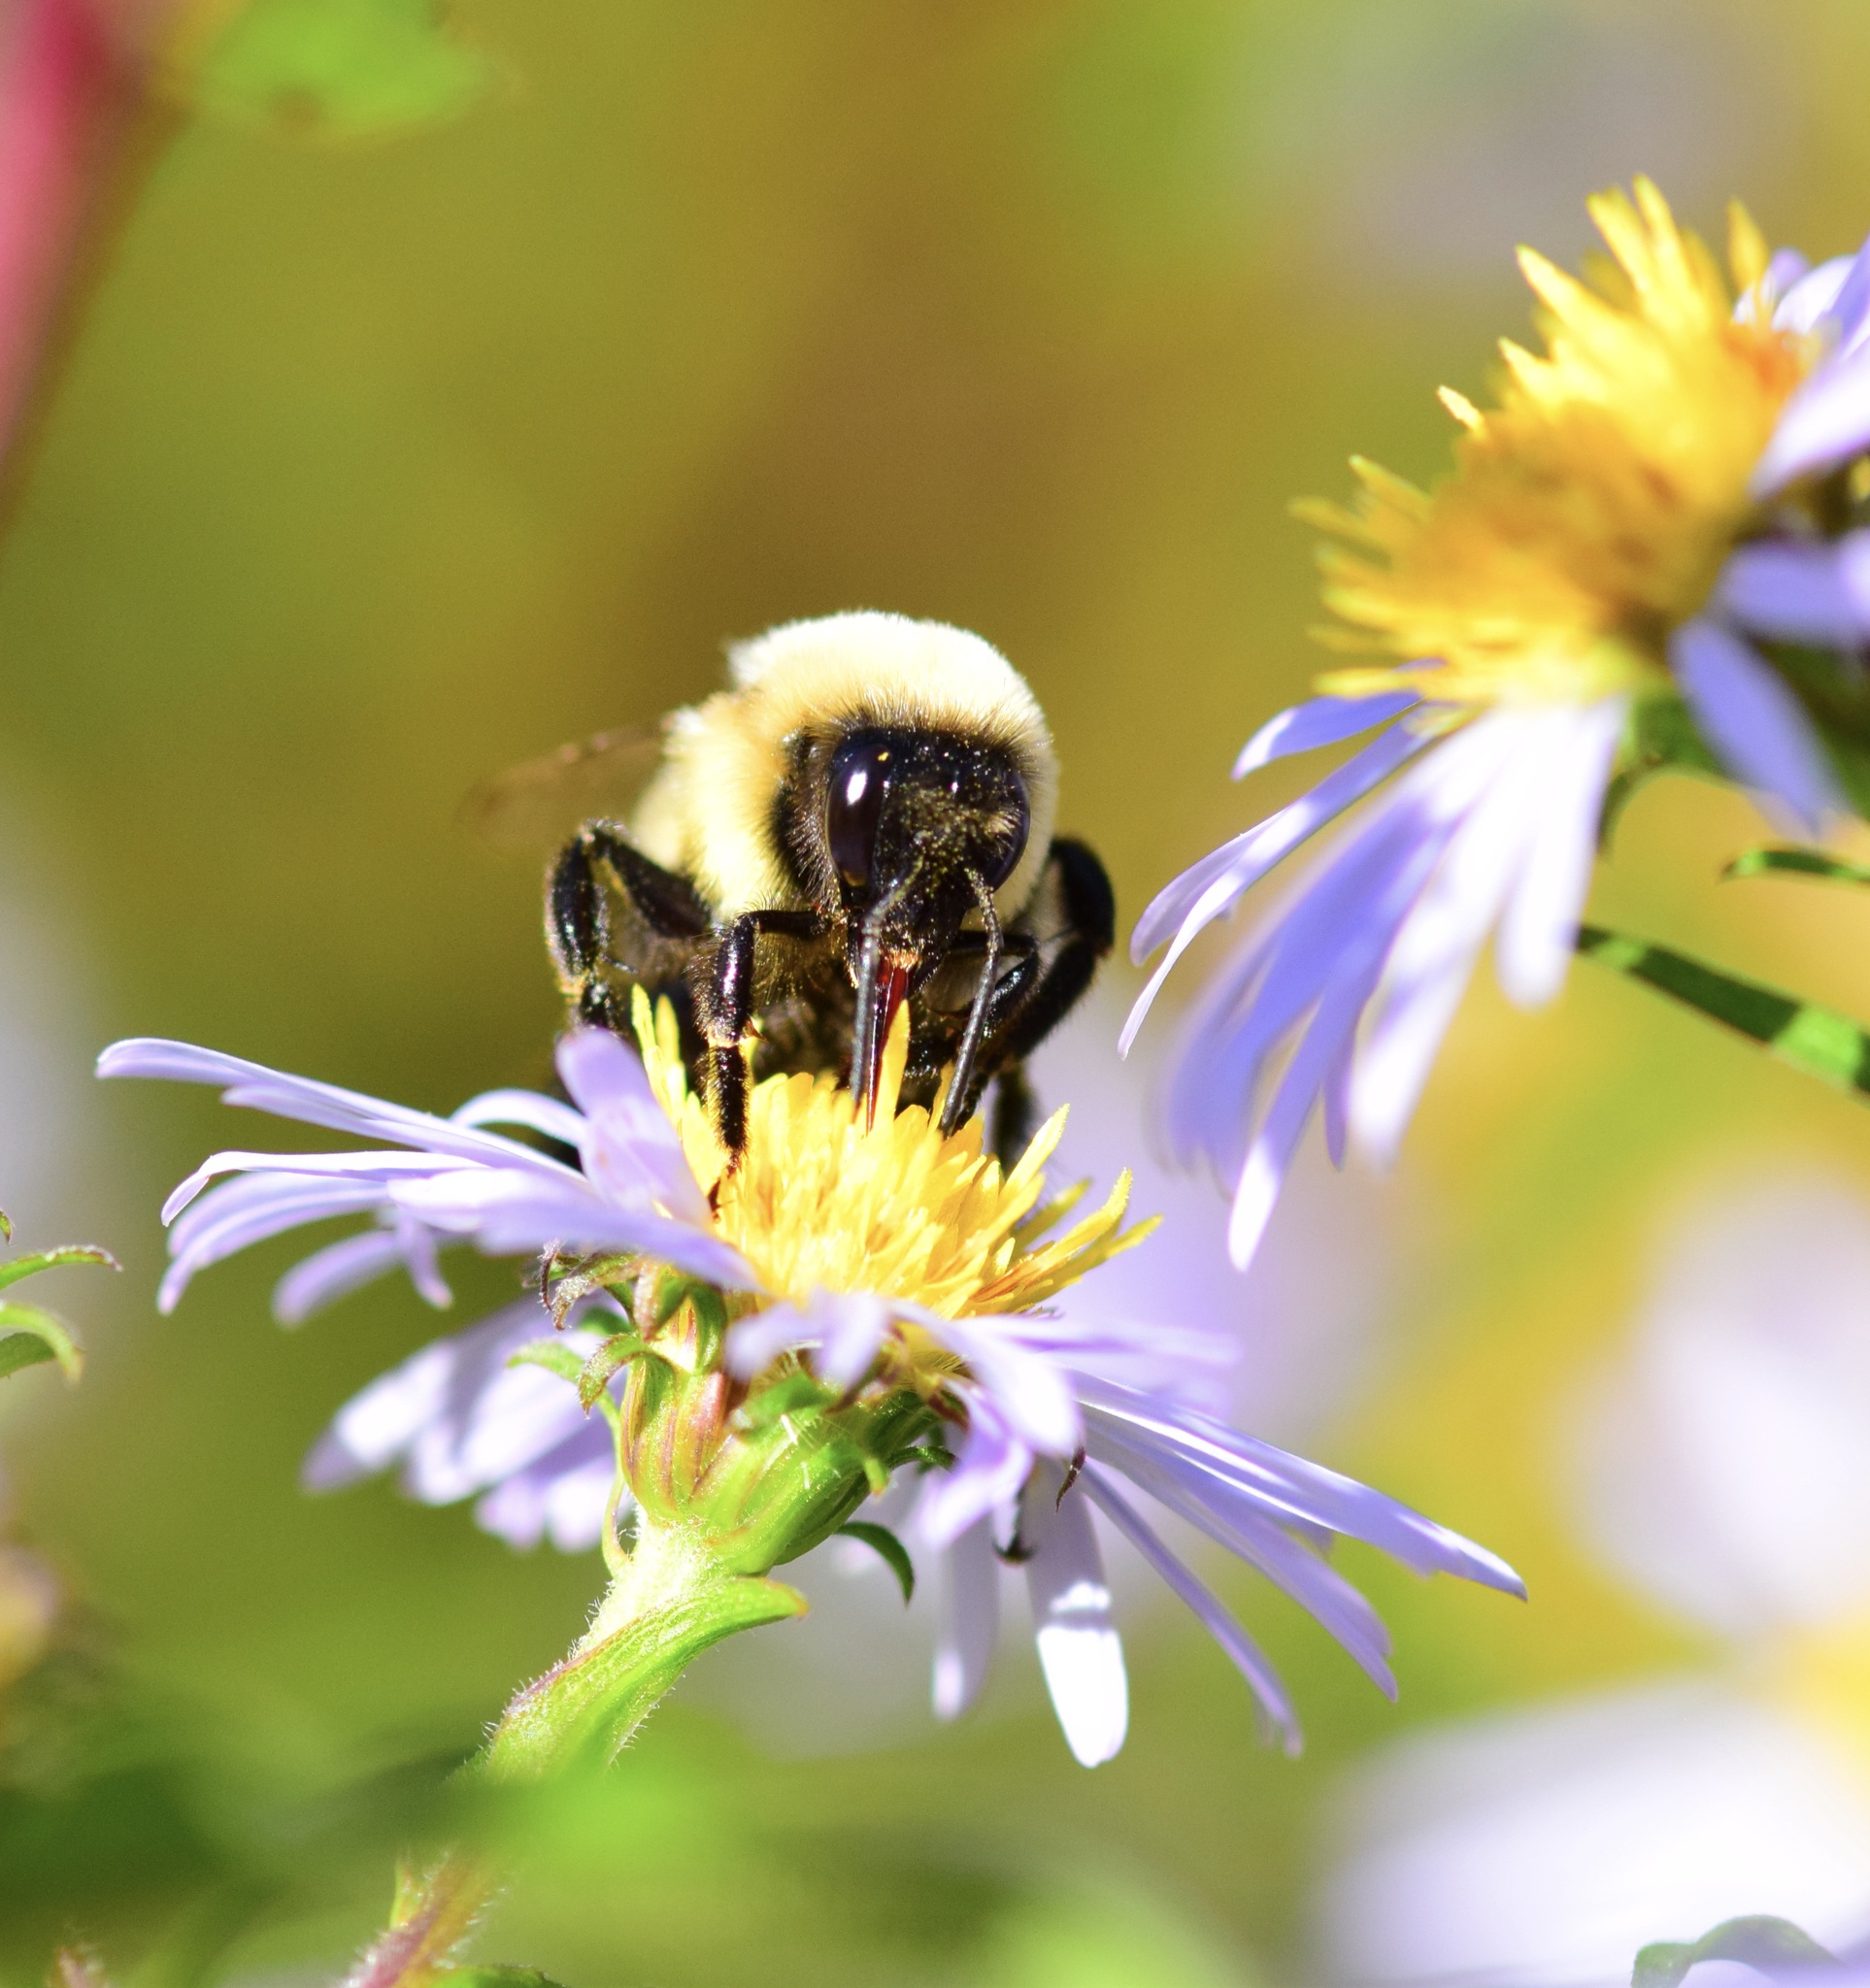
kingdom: Animalia
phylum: Arthropoda
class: Insecta
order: Hymenoptera
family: Apidae
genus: Bombus
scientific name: Bombus impatiens
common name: Common eastern bumble bee
